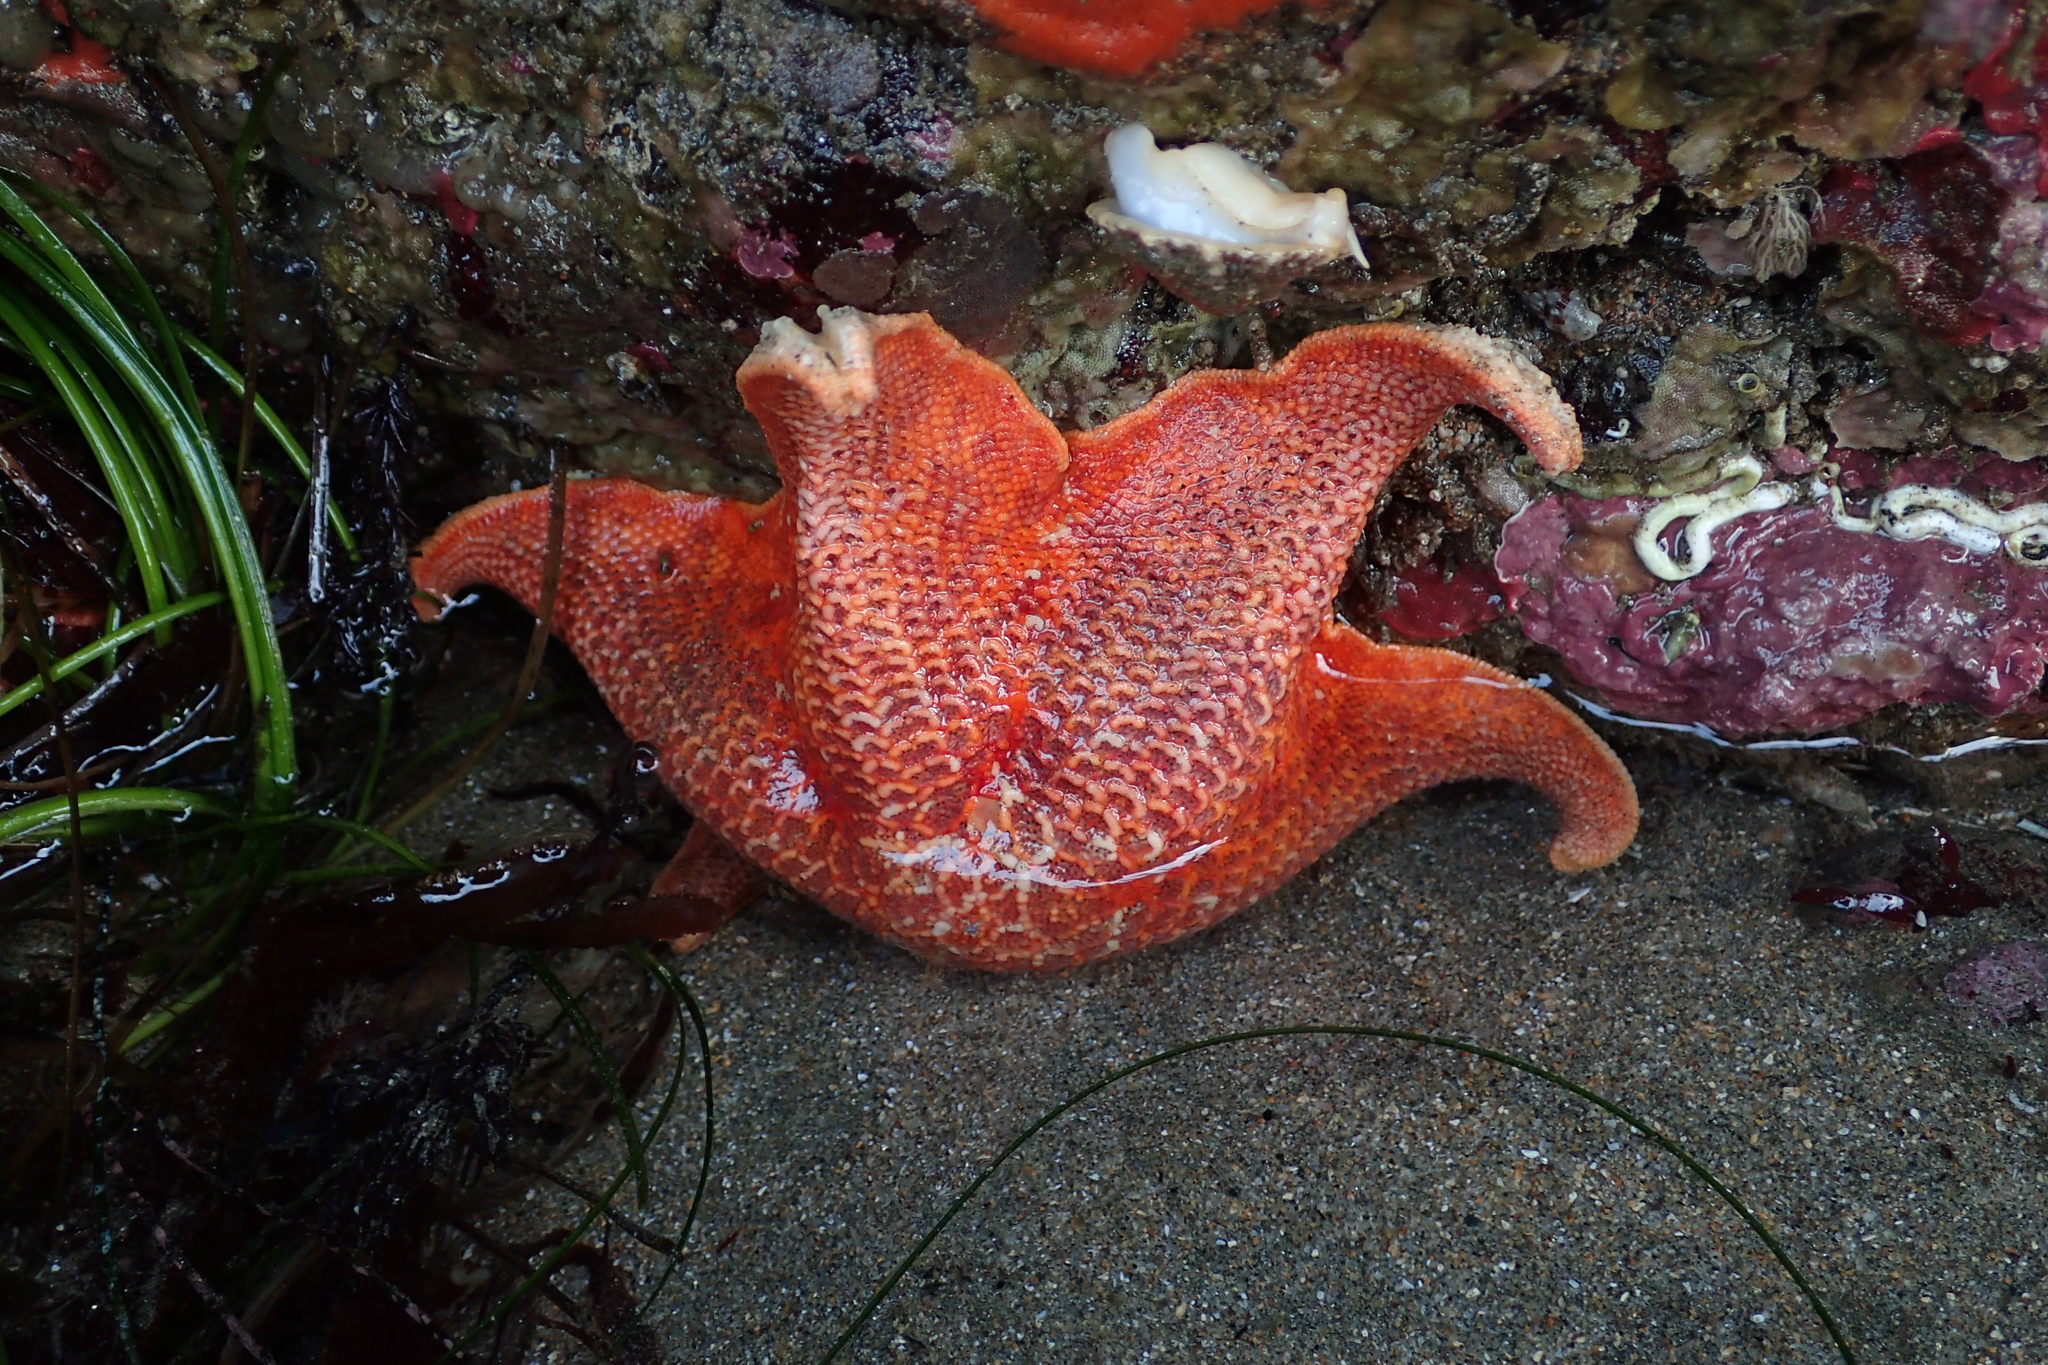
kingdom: Animalia
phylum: Echinodermata
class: Asteroidea
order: Valvatida
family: Asterinidae
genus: Patiria
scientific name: Patiria miniata
